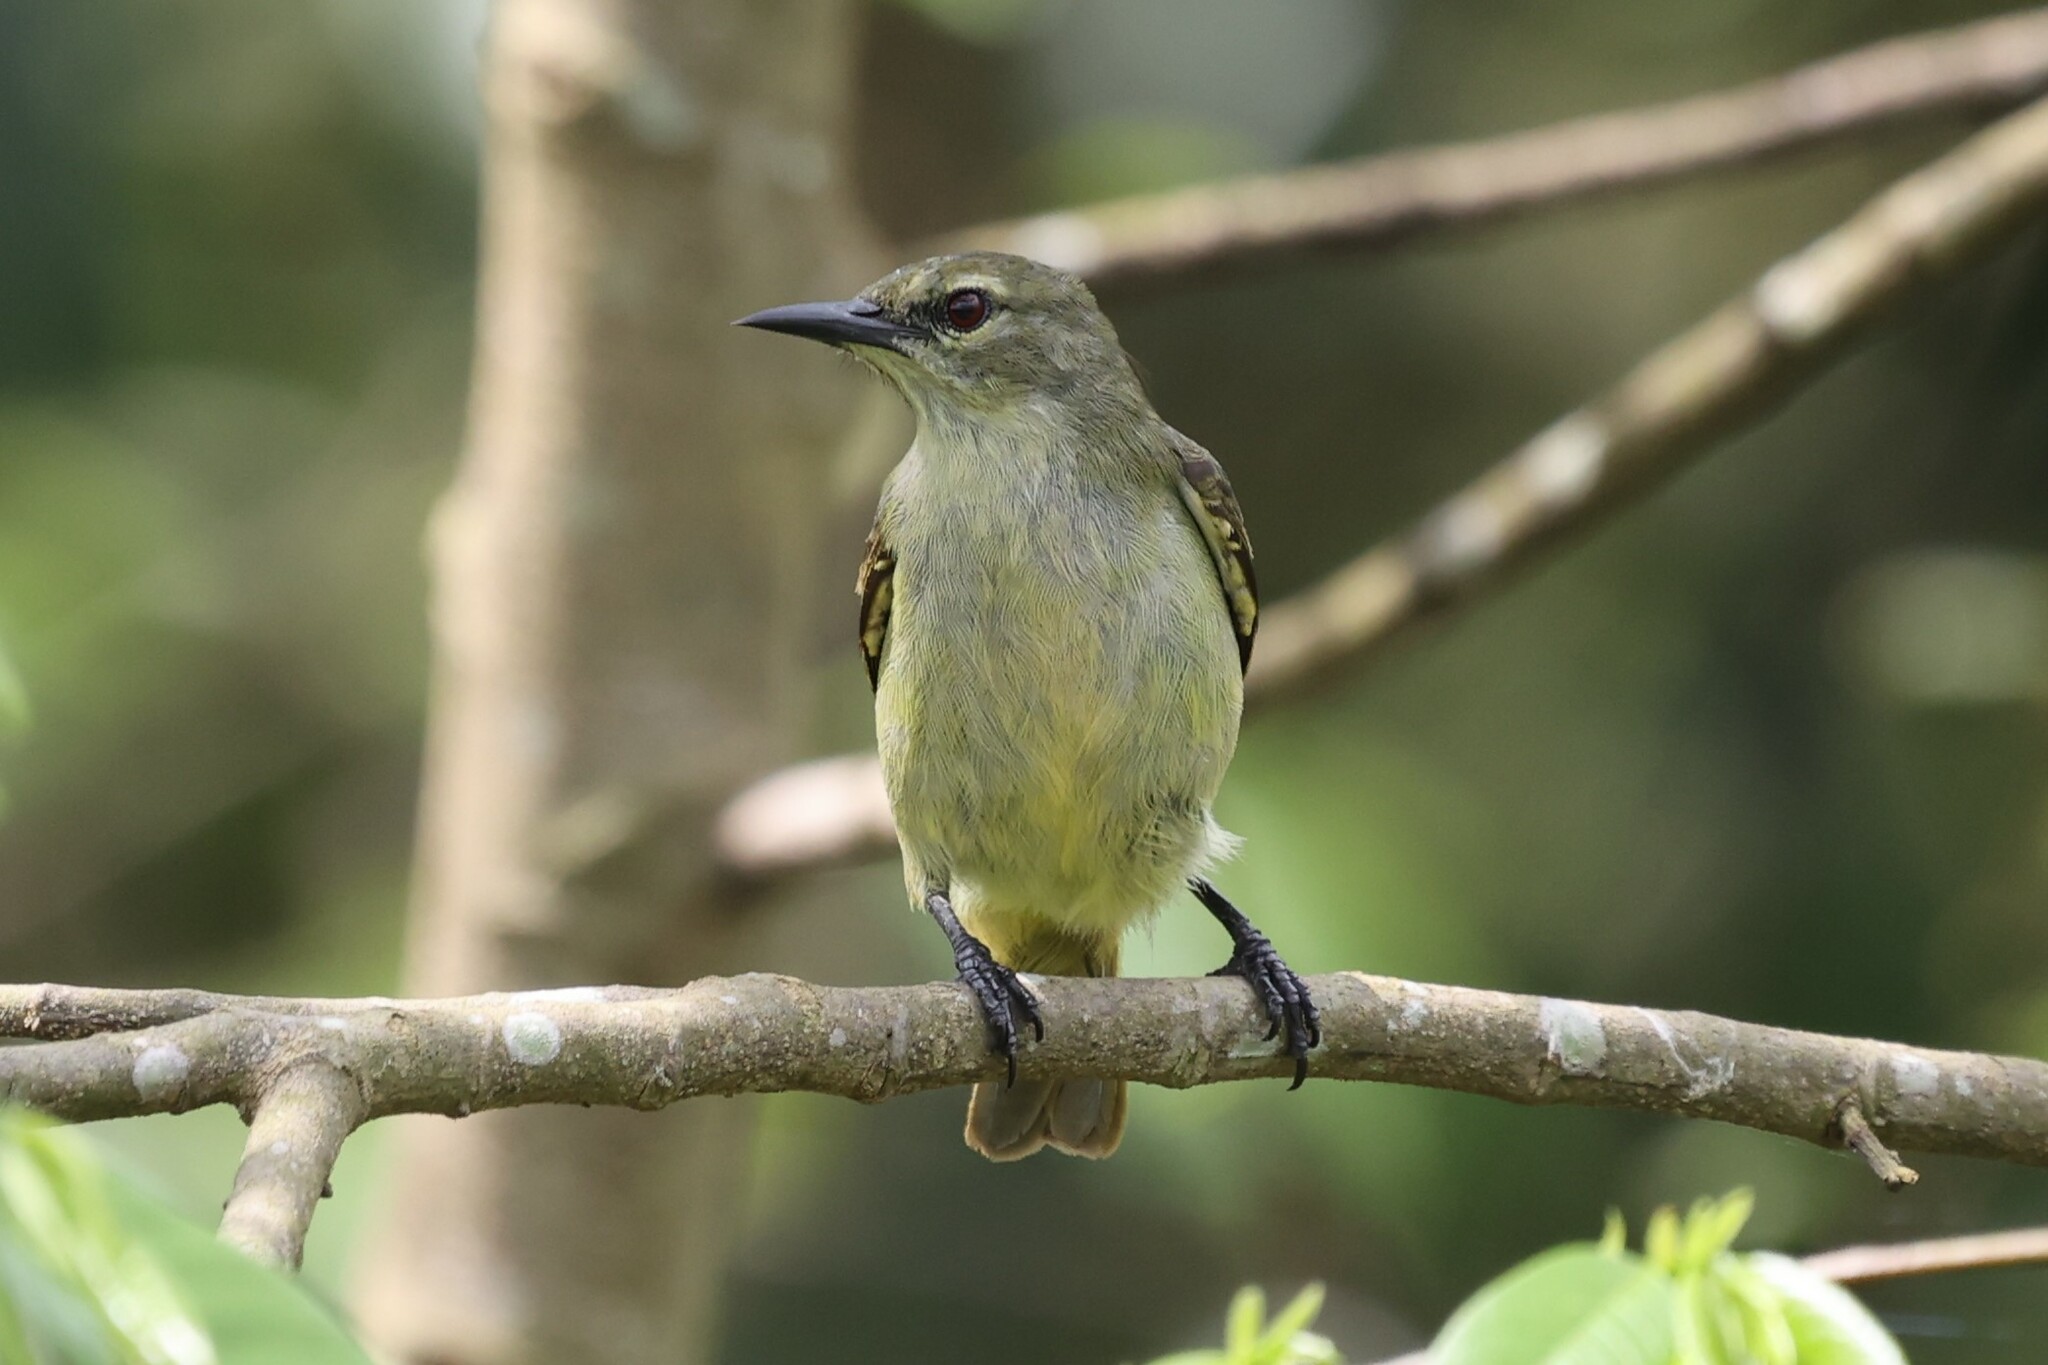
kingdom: Animalia
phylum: Chordata
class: Aves
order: Passeriformes
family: Nectariniidae
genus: Anthreptes
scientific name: Anthreptes rectirostris
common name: Grey-chinned sunbird
